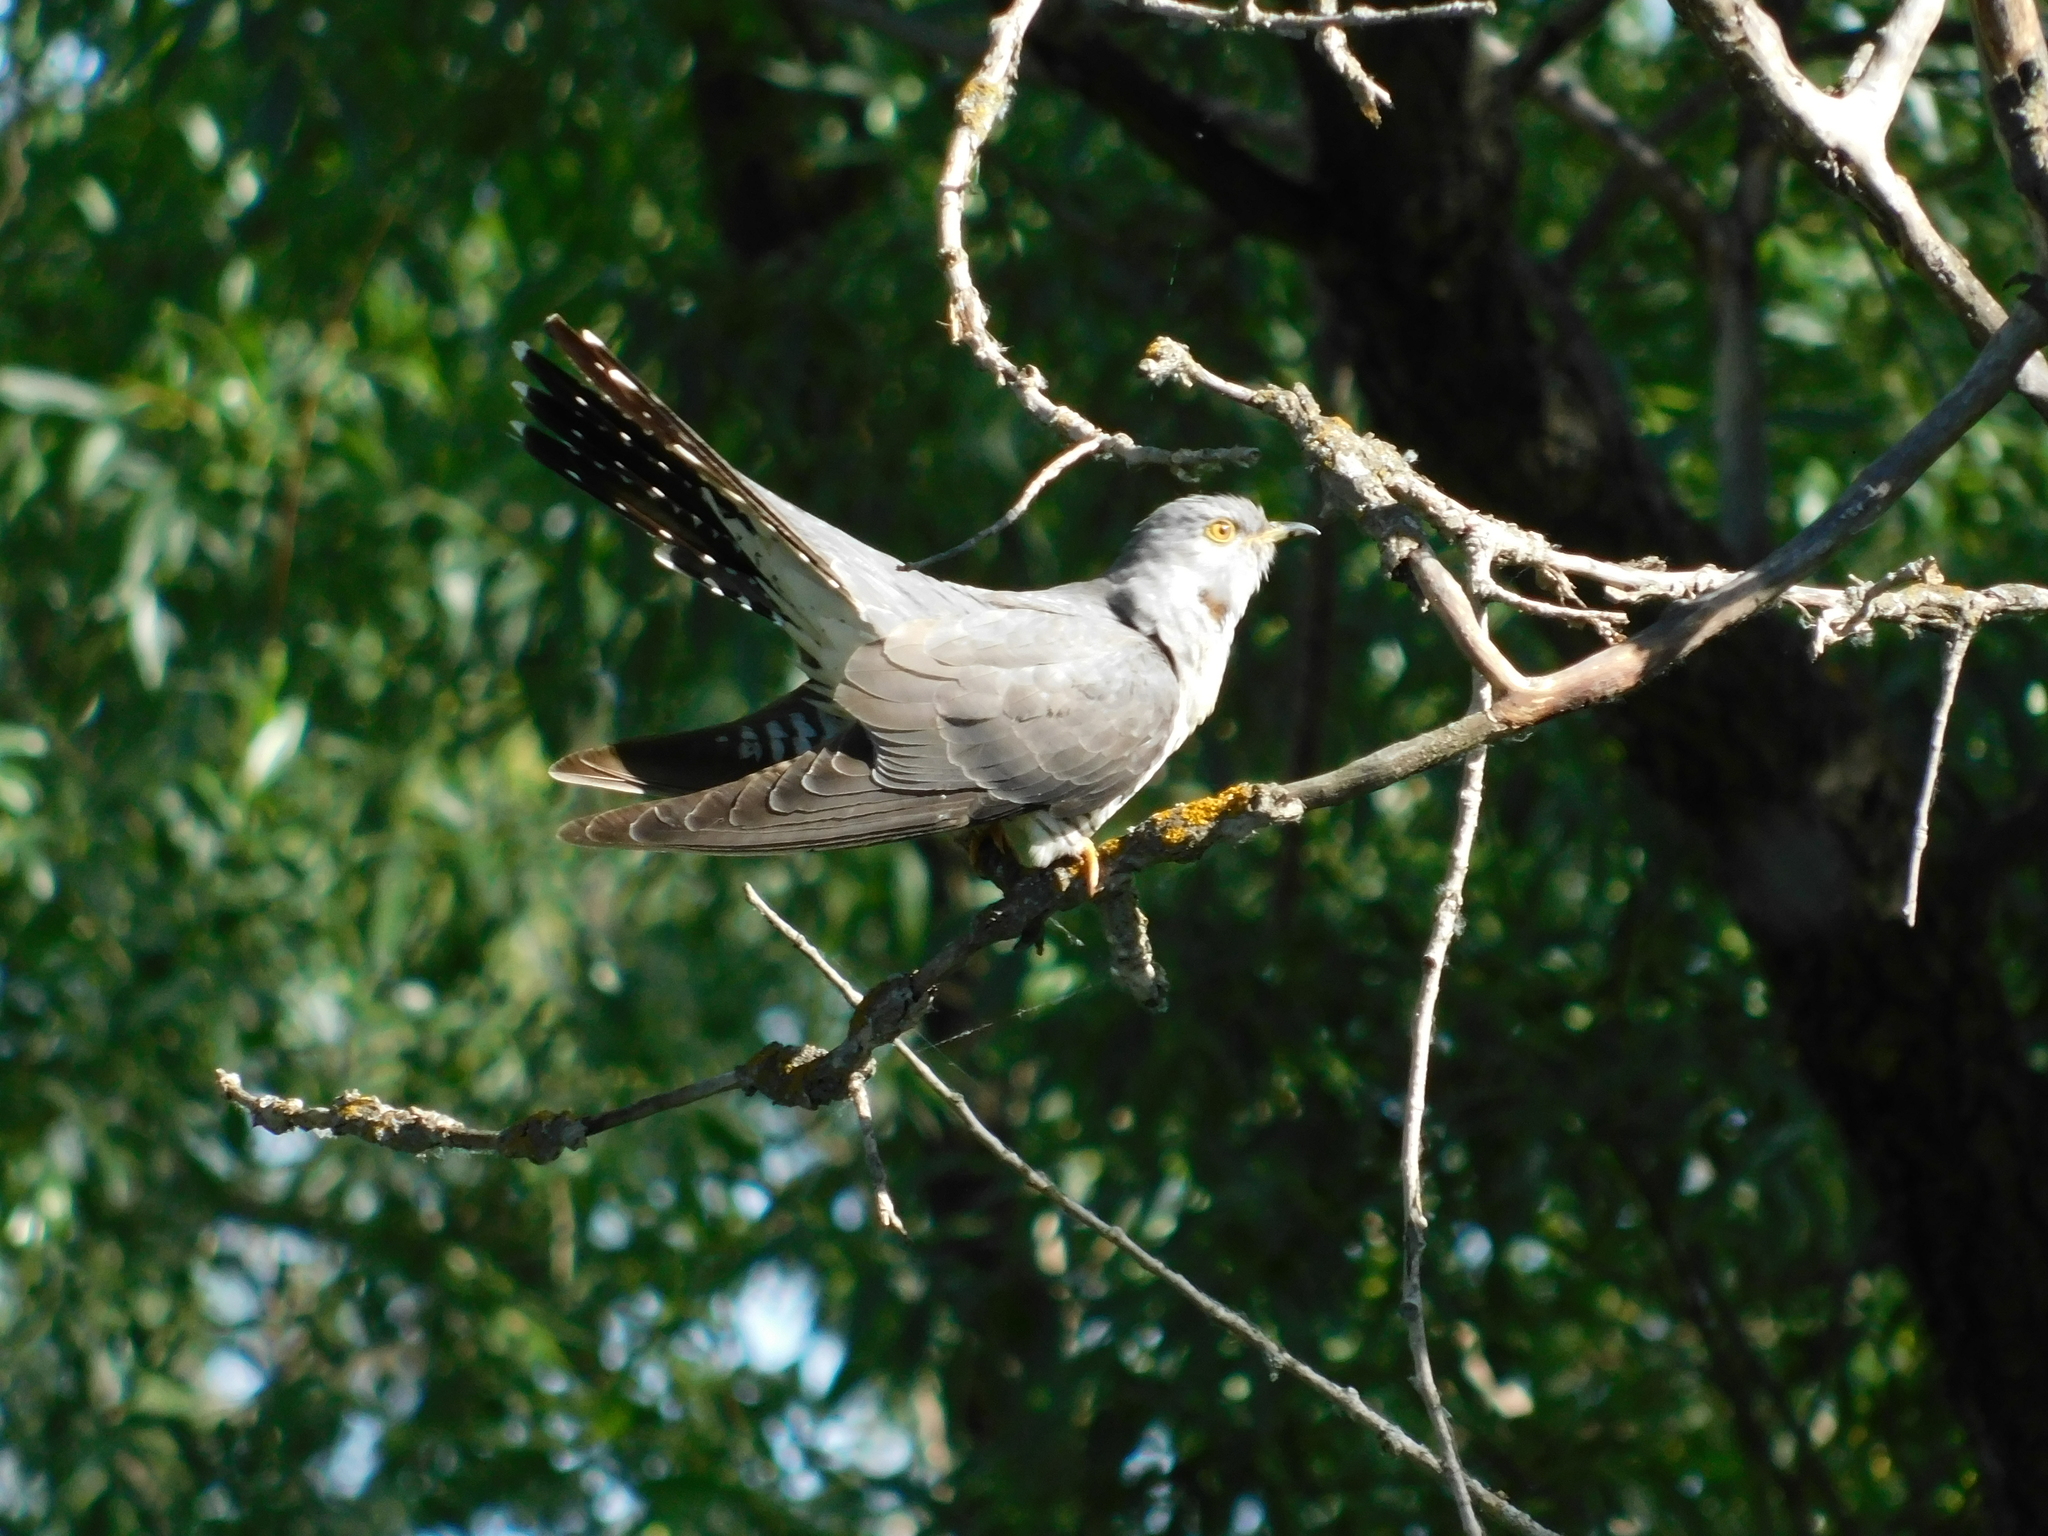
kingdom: Animalia
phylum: Chordata
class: Aves
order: Cuculiformes
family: Cuculidae
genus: Cuculus
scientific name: Cuculus canorus
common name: Common cuckoo
